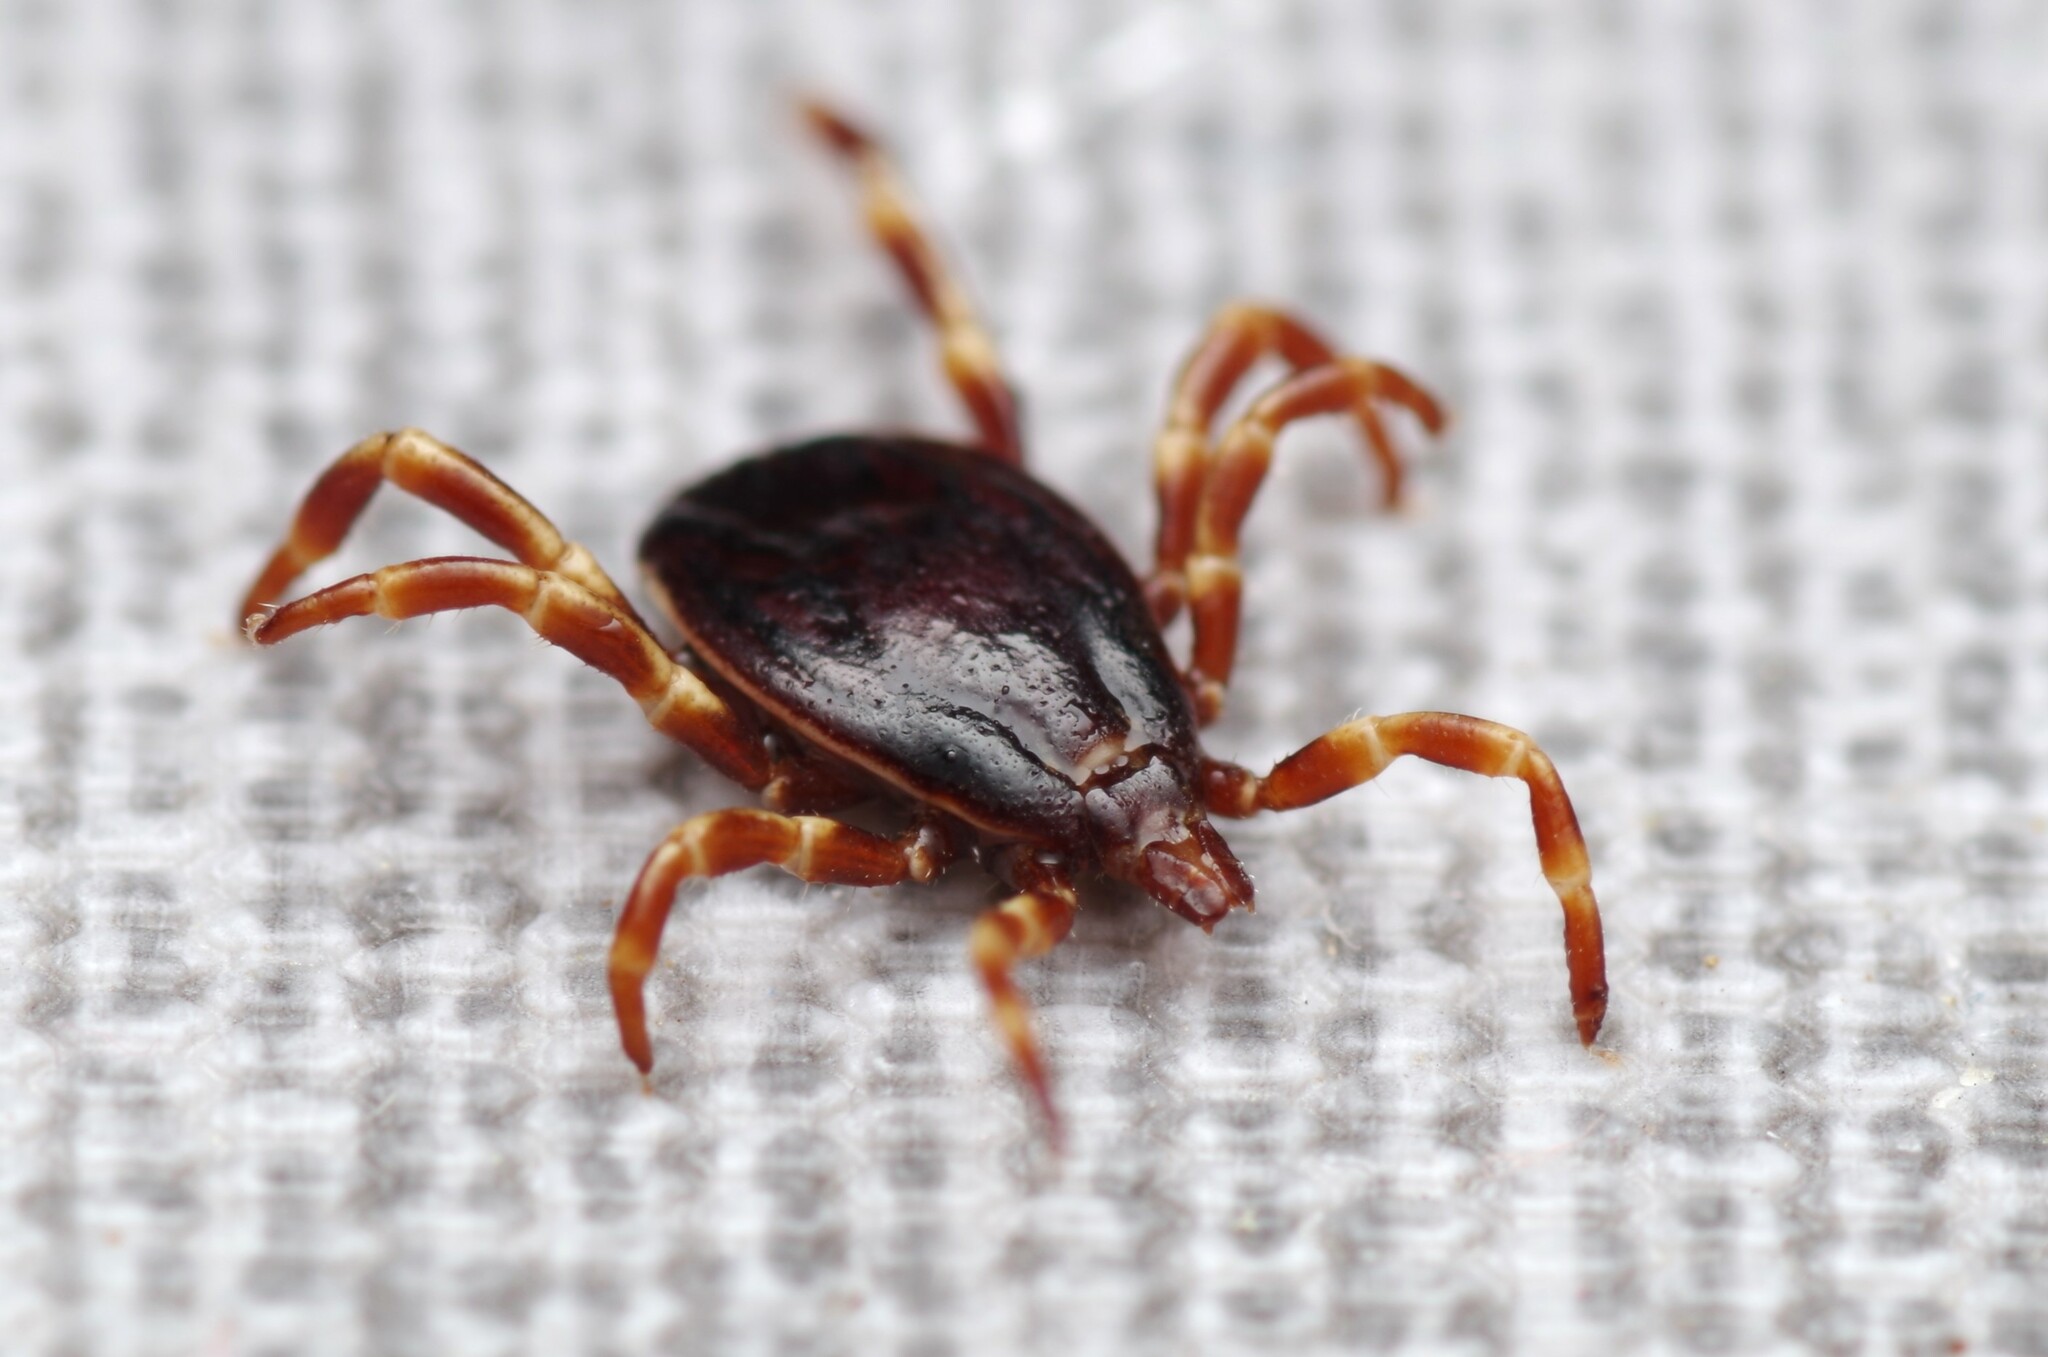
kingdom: Animalia
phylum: Arthropoda
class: Arachnida
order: Ixodida
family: Ixodidae
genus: Hyalomma
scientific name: Hyalomma marginatum
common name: Mediterranean hyalomma
